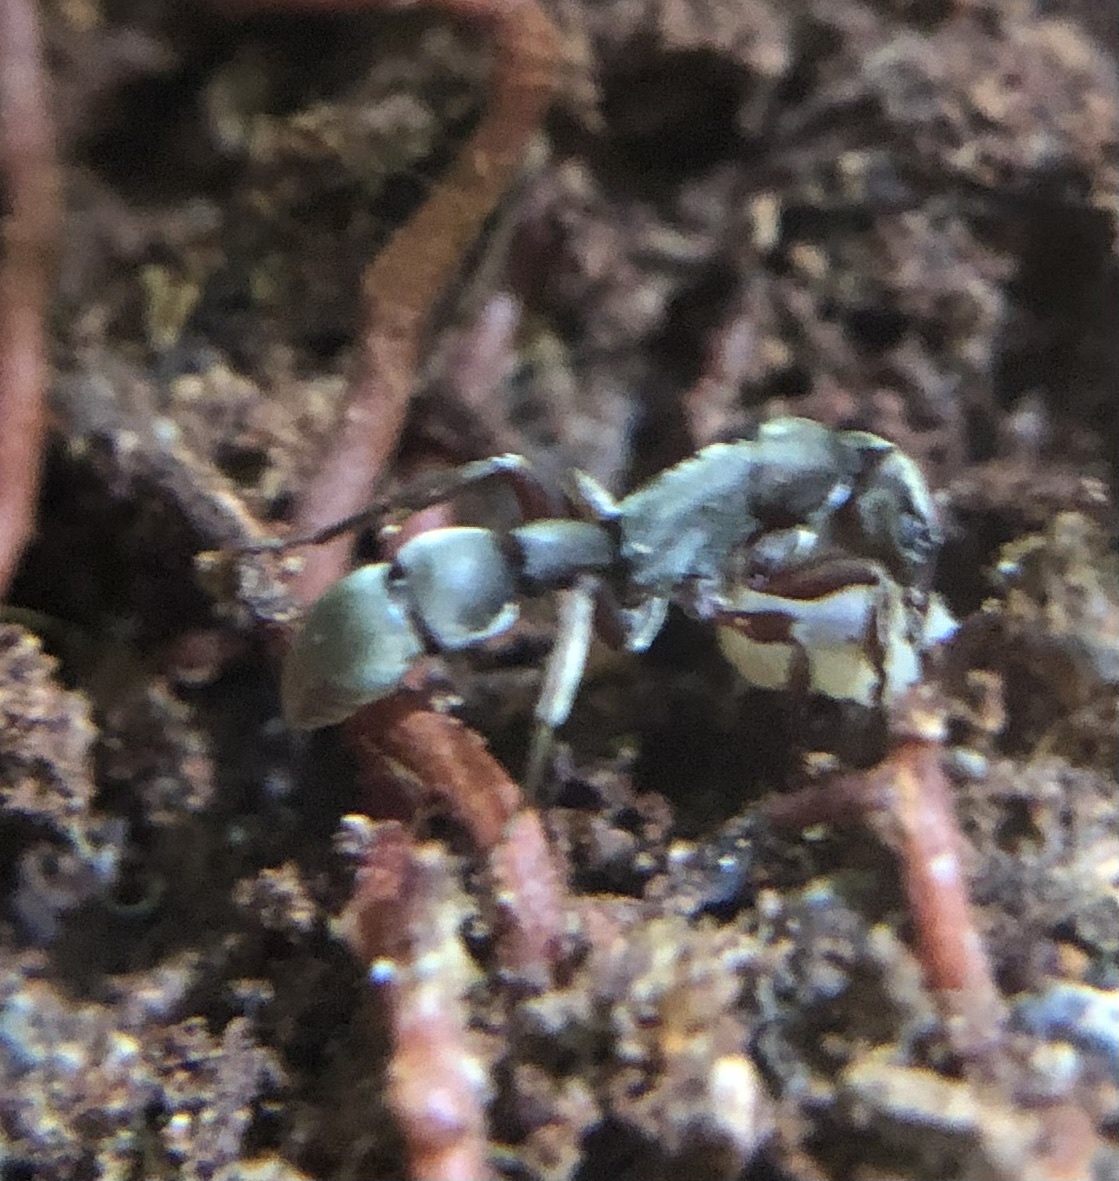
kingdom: Animalia
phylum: Arthropoda
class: Insecta
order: Hymenoptera
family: Formicidae
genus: Platythyrea
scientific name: Platythyrea
